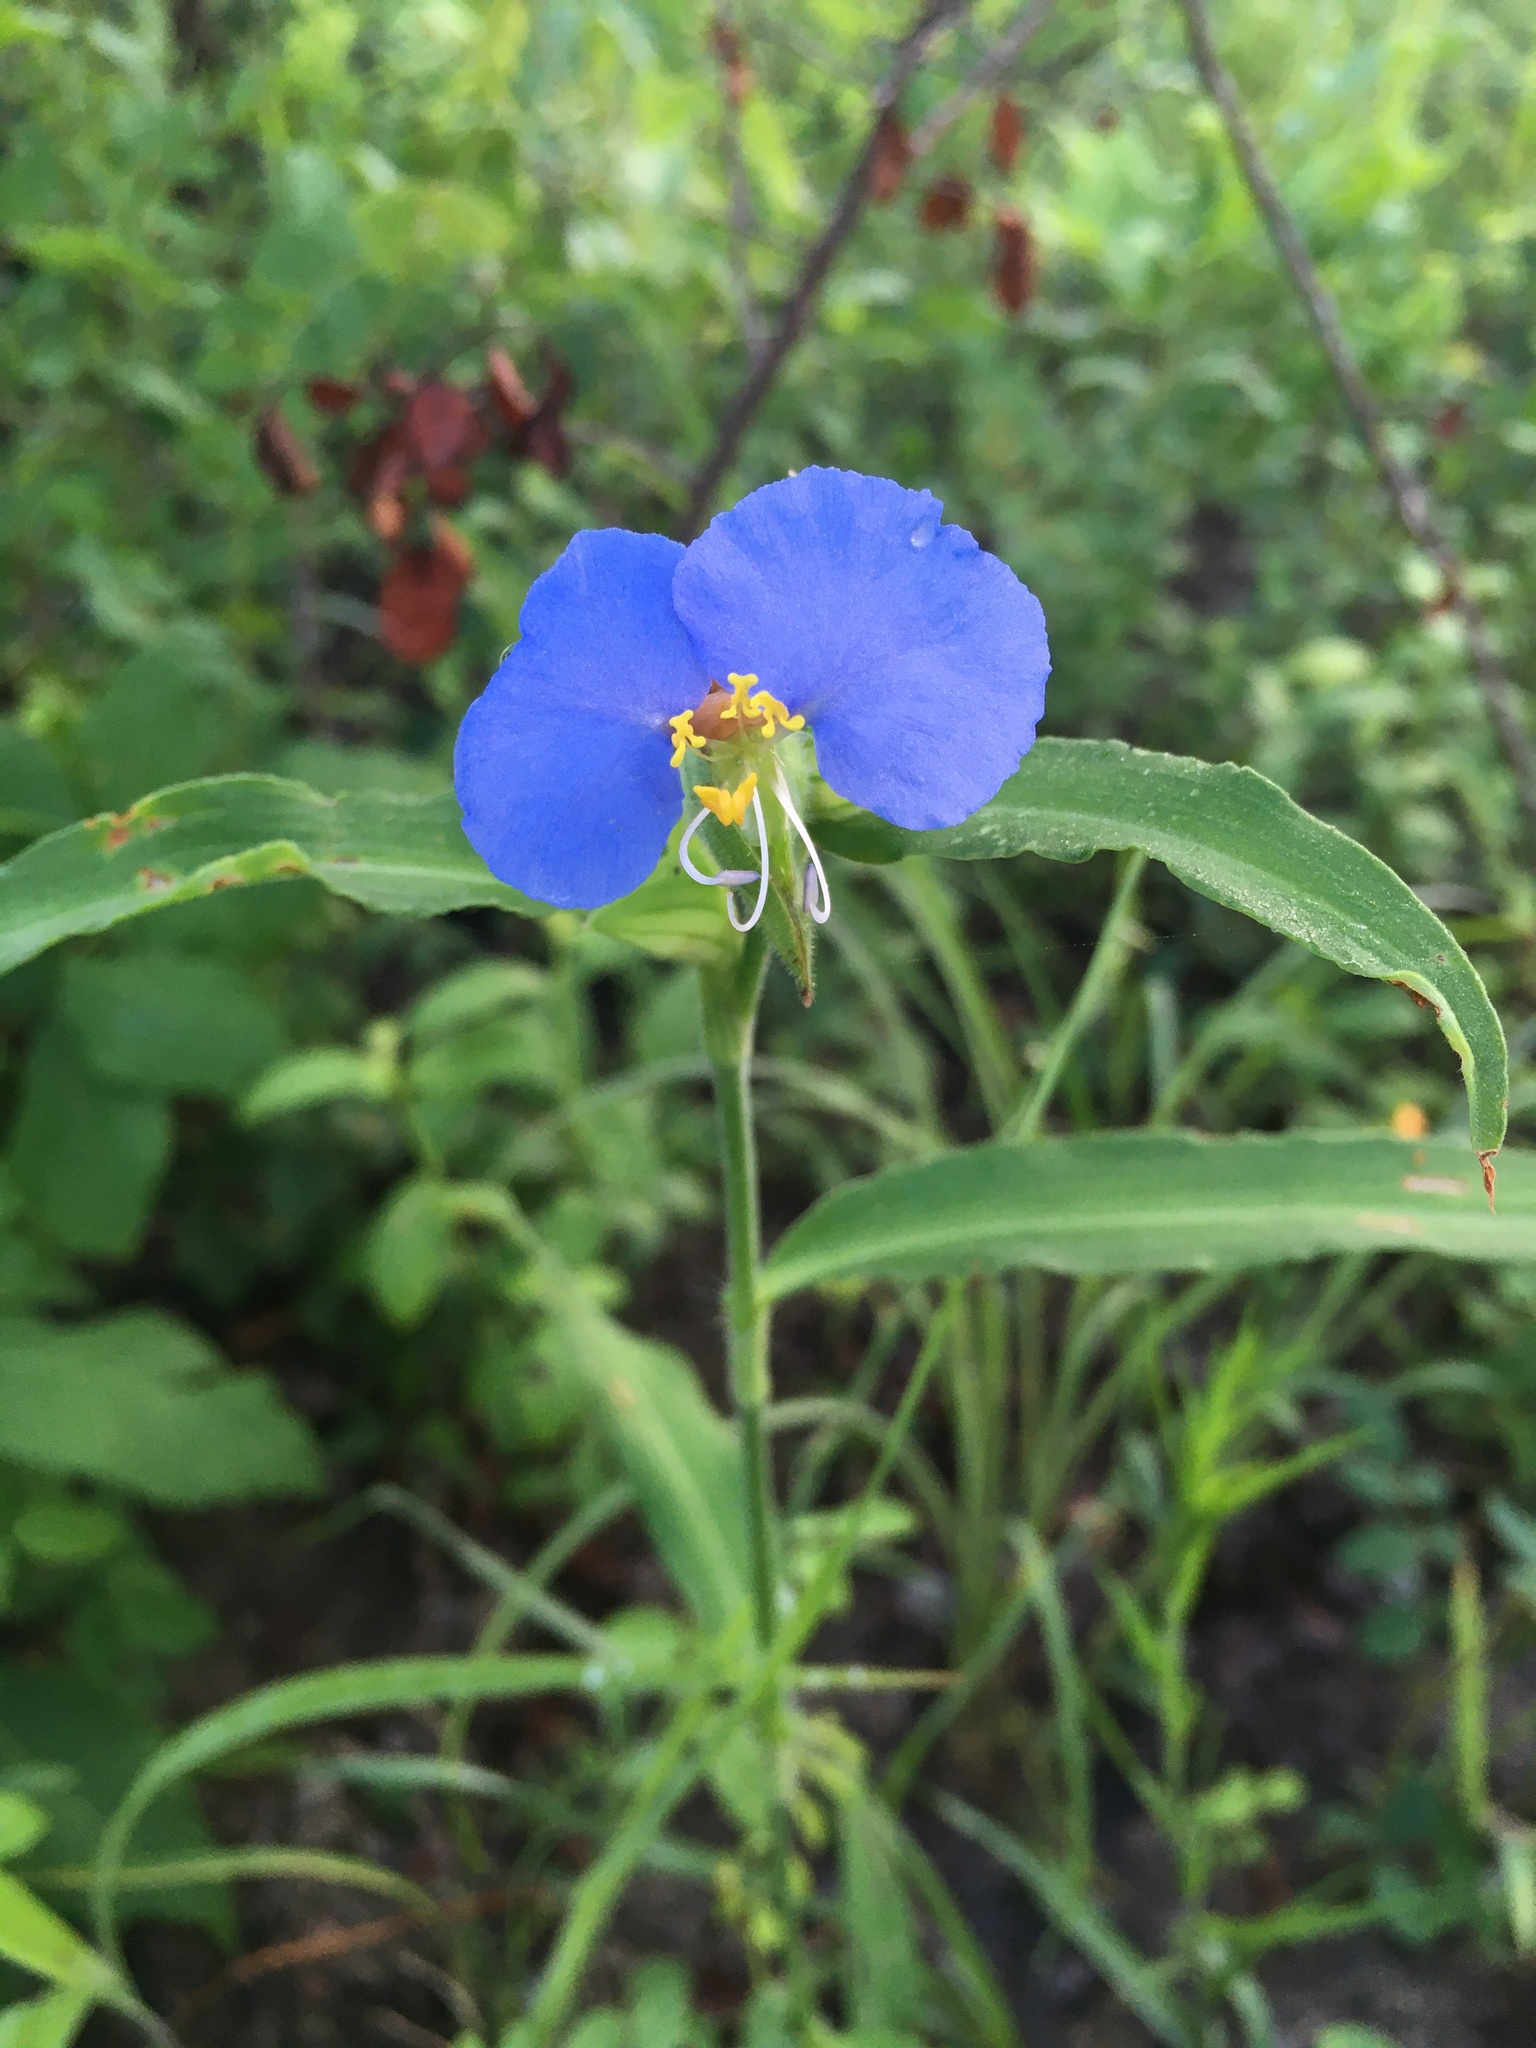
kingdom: Plantae
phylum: Tracheophyta
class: Liliopsida
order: Commelinales
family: Commelinaceae
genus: Commelina
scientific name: Commelina erecta
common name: Blousel blommetjie
